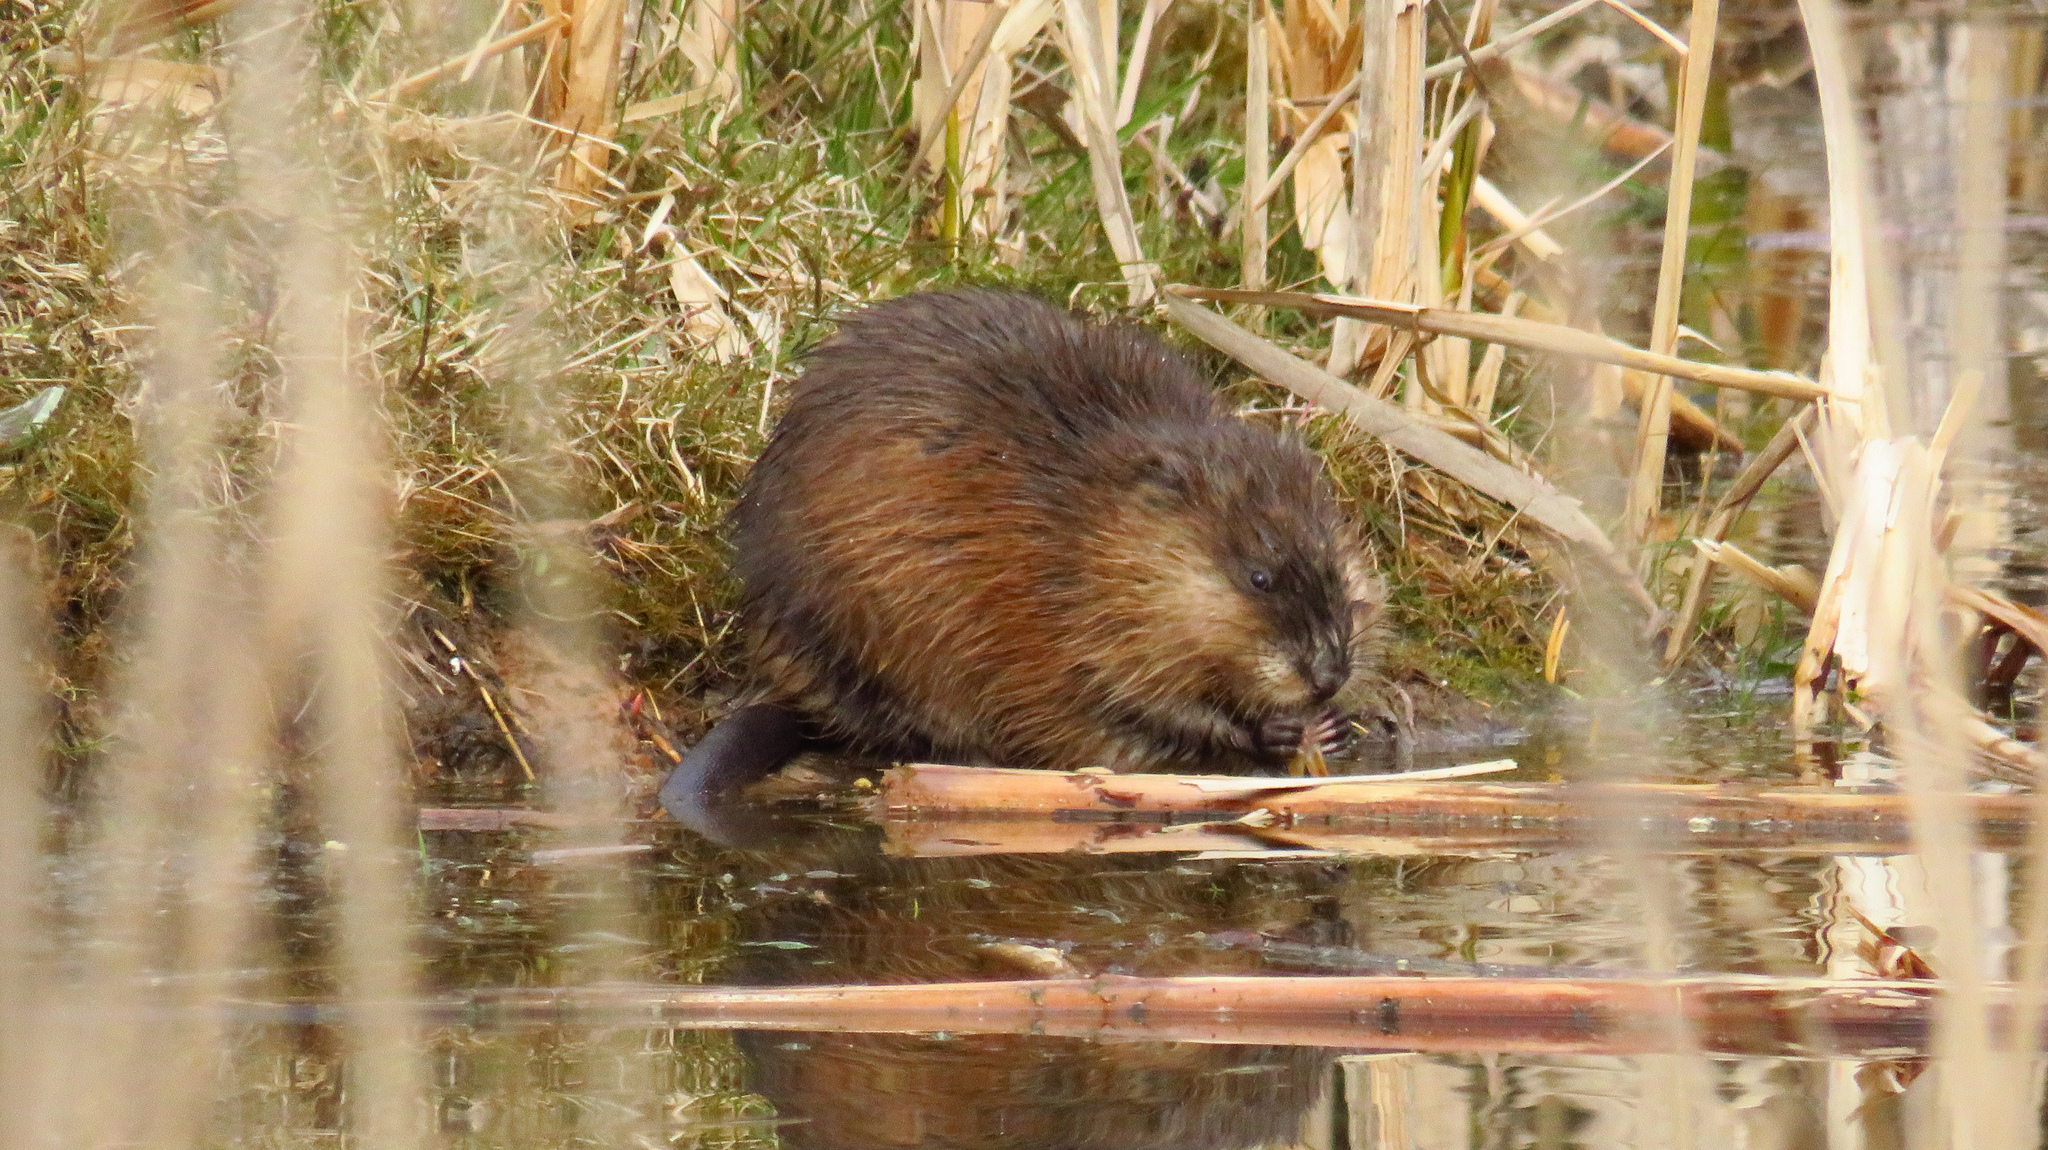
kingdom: Animalia
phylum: Chordata
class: Mammalia
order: Rodentia
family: Cricetidae
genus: Ondatra
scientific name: Ondatra zibethicus
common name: Muskrat
